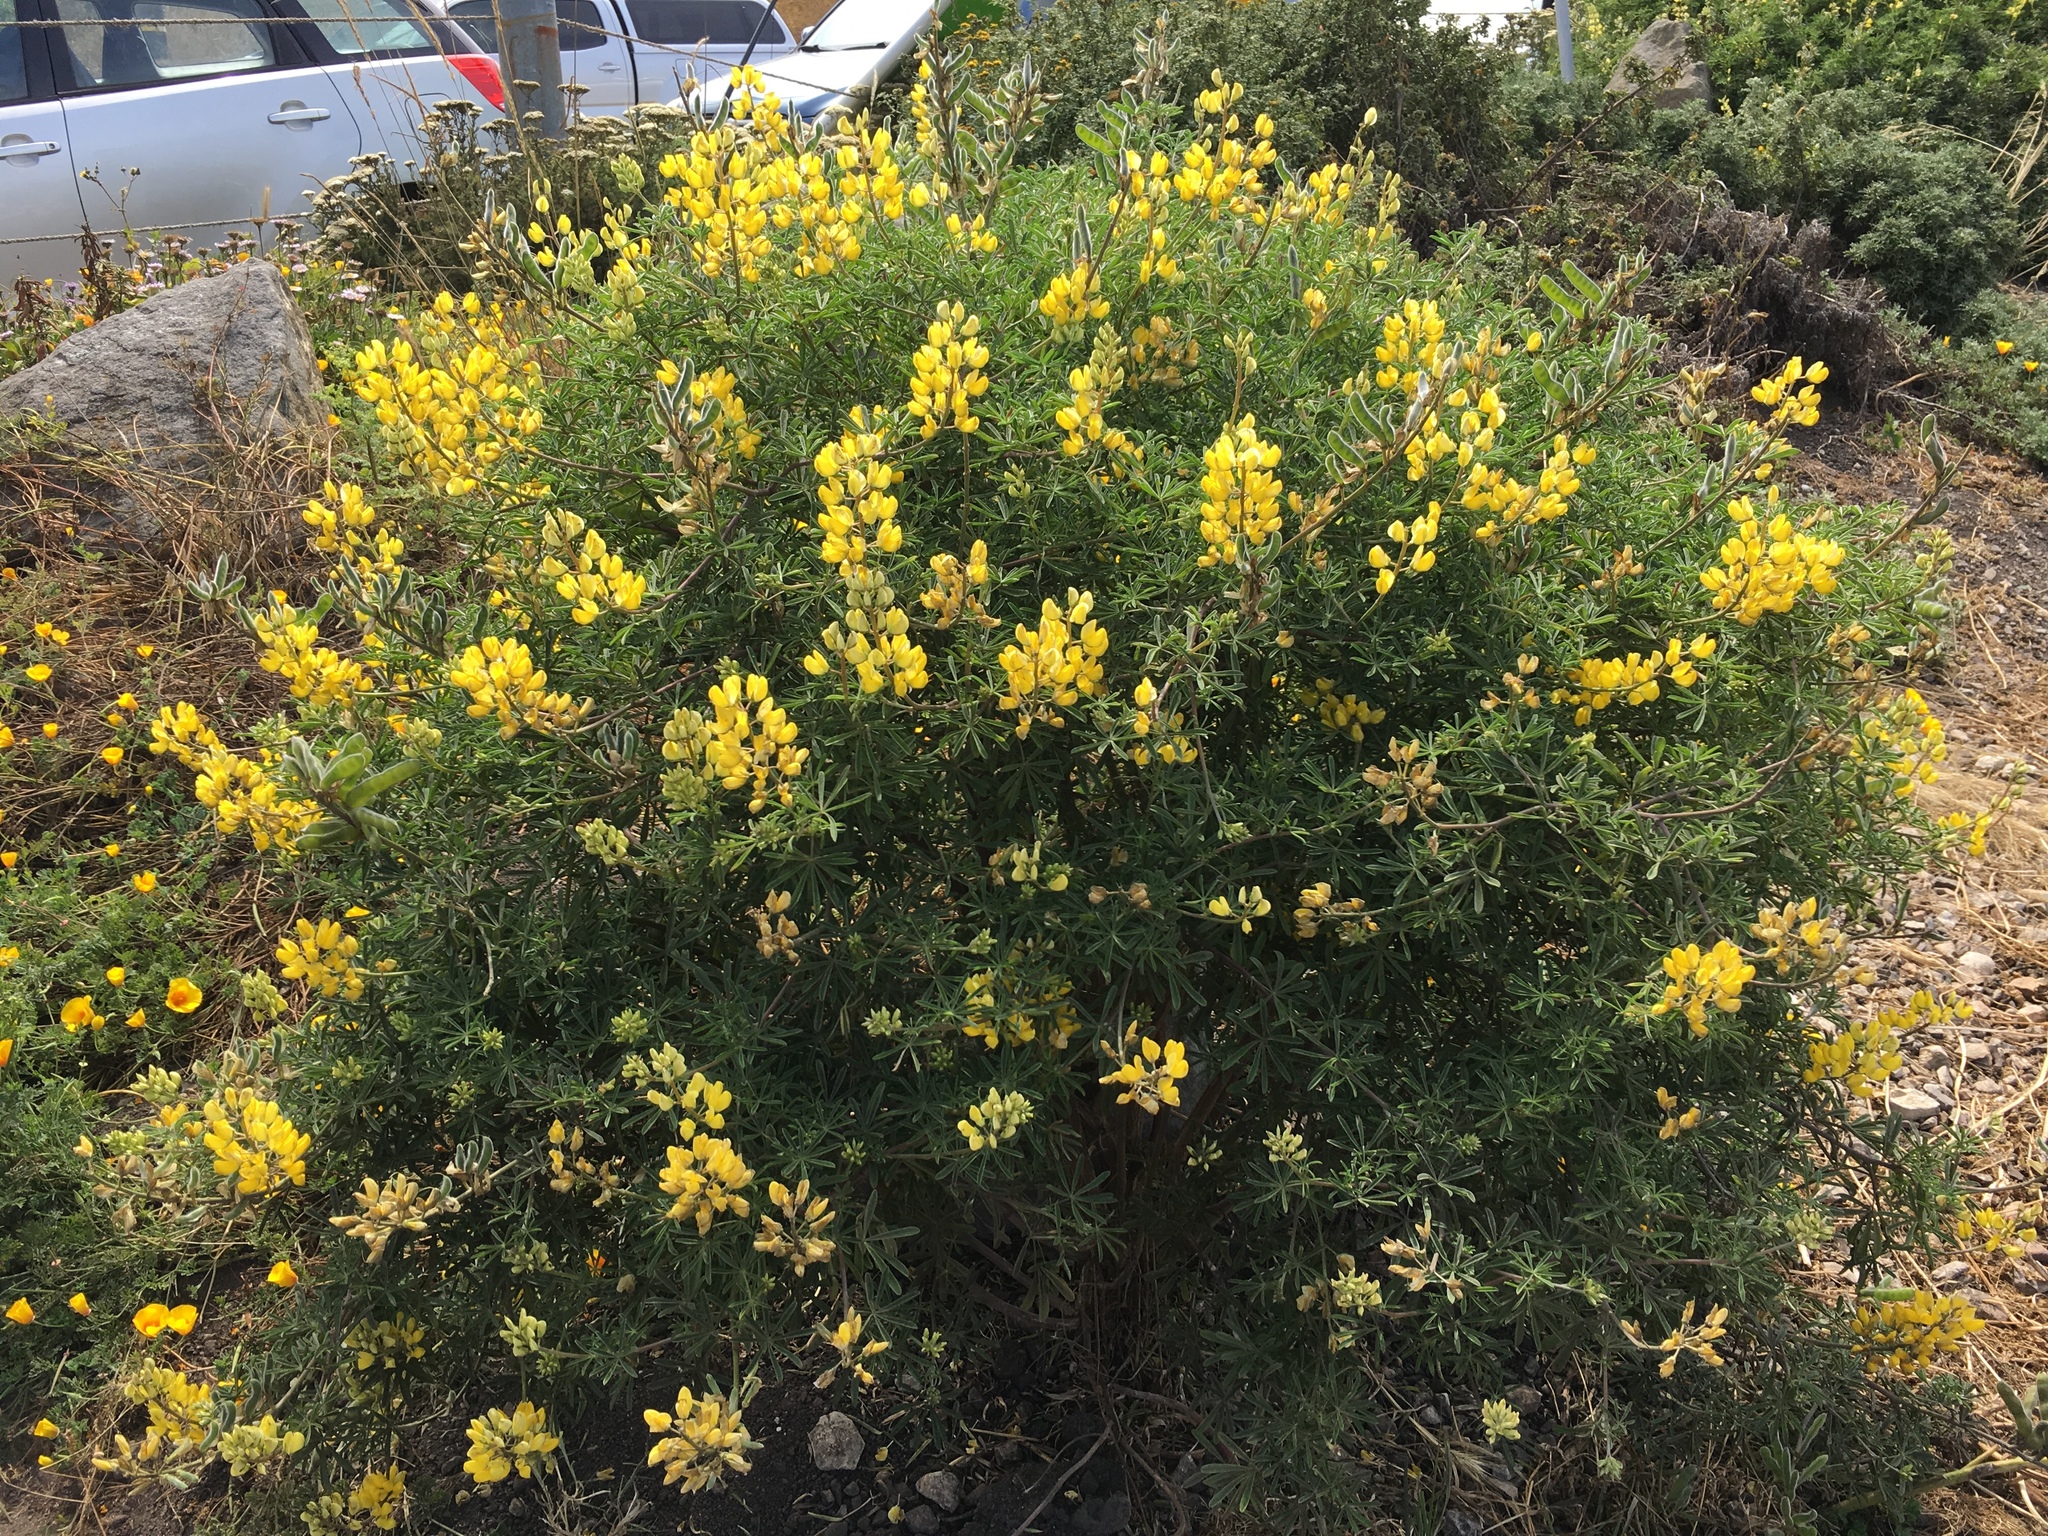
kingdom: Plantae
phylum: Tracheophyta
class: Magnoliopsida
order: Fabales
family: Fabaceae
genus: Lupinus
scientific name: Lupinus arboreus
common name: Yellow bush lupine
